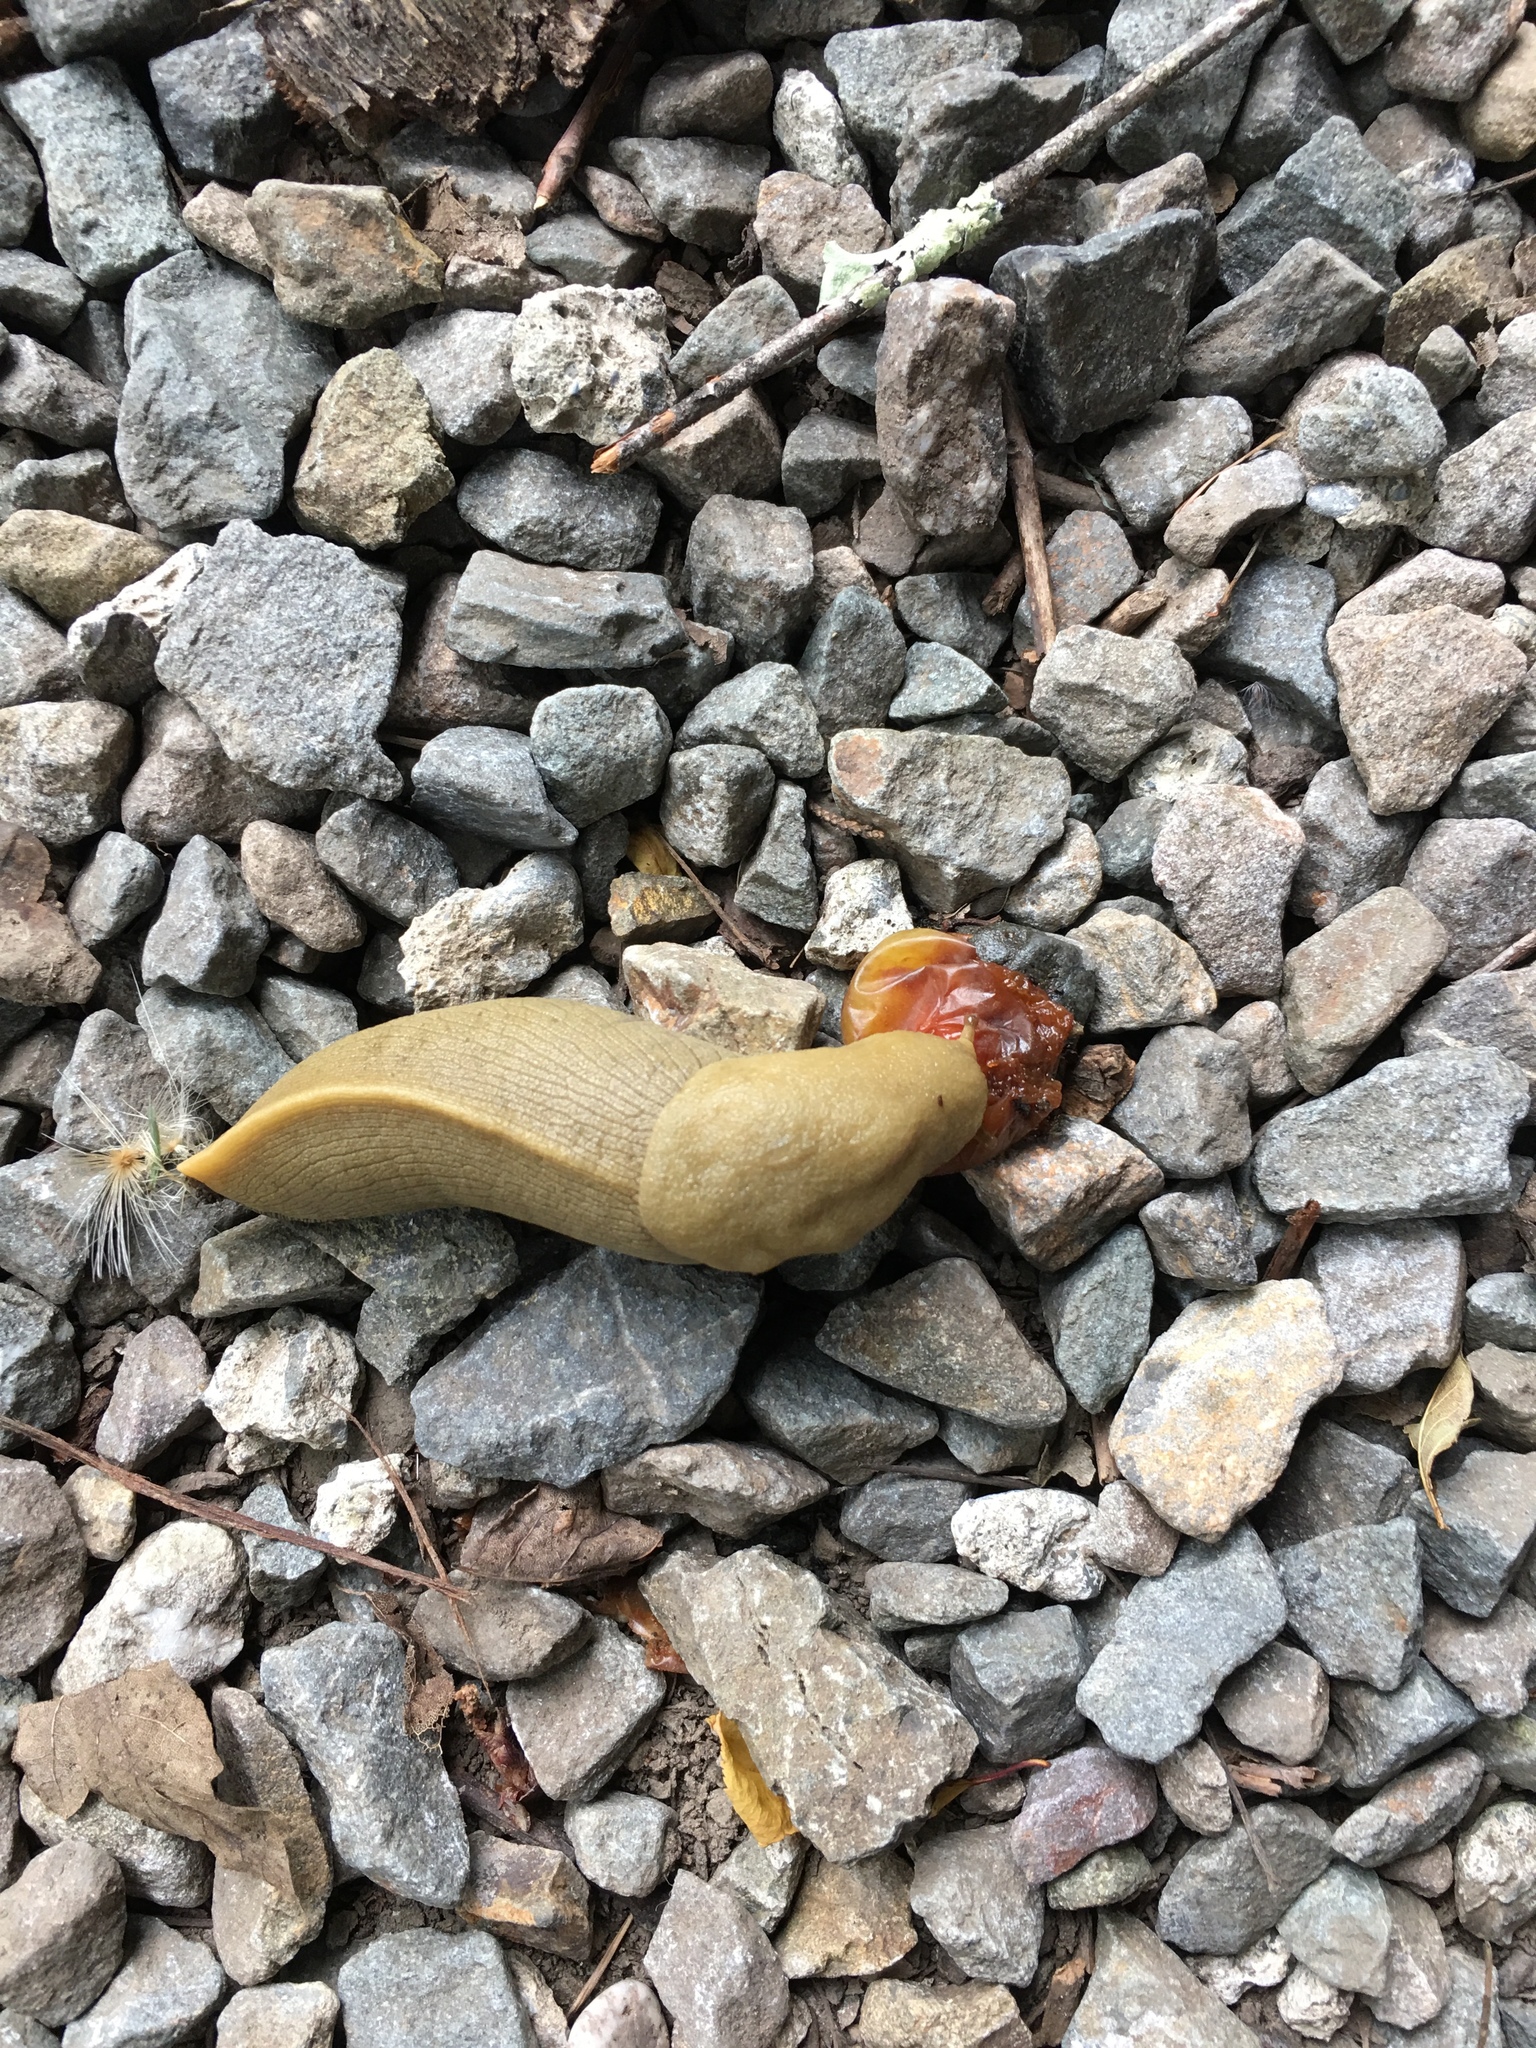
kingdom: Animalia
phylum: Mollusca
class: Gastropoda
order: Stylommatophora
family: Ariolimacidae
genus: Ariolimax
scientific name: Ariolimax buttoni
